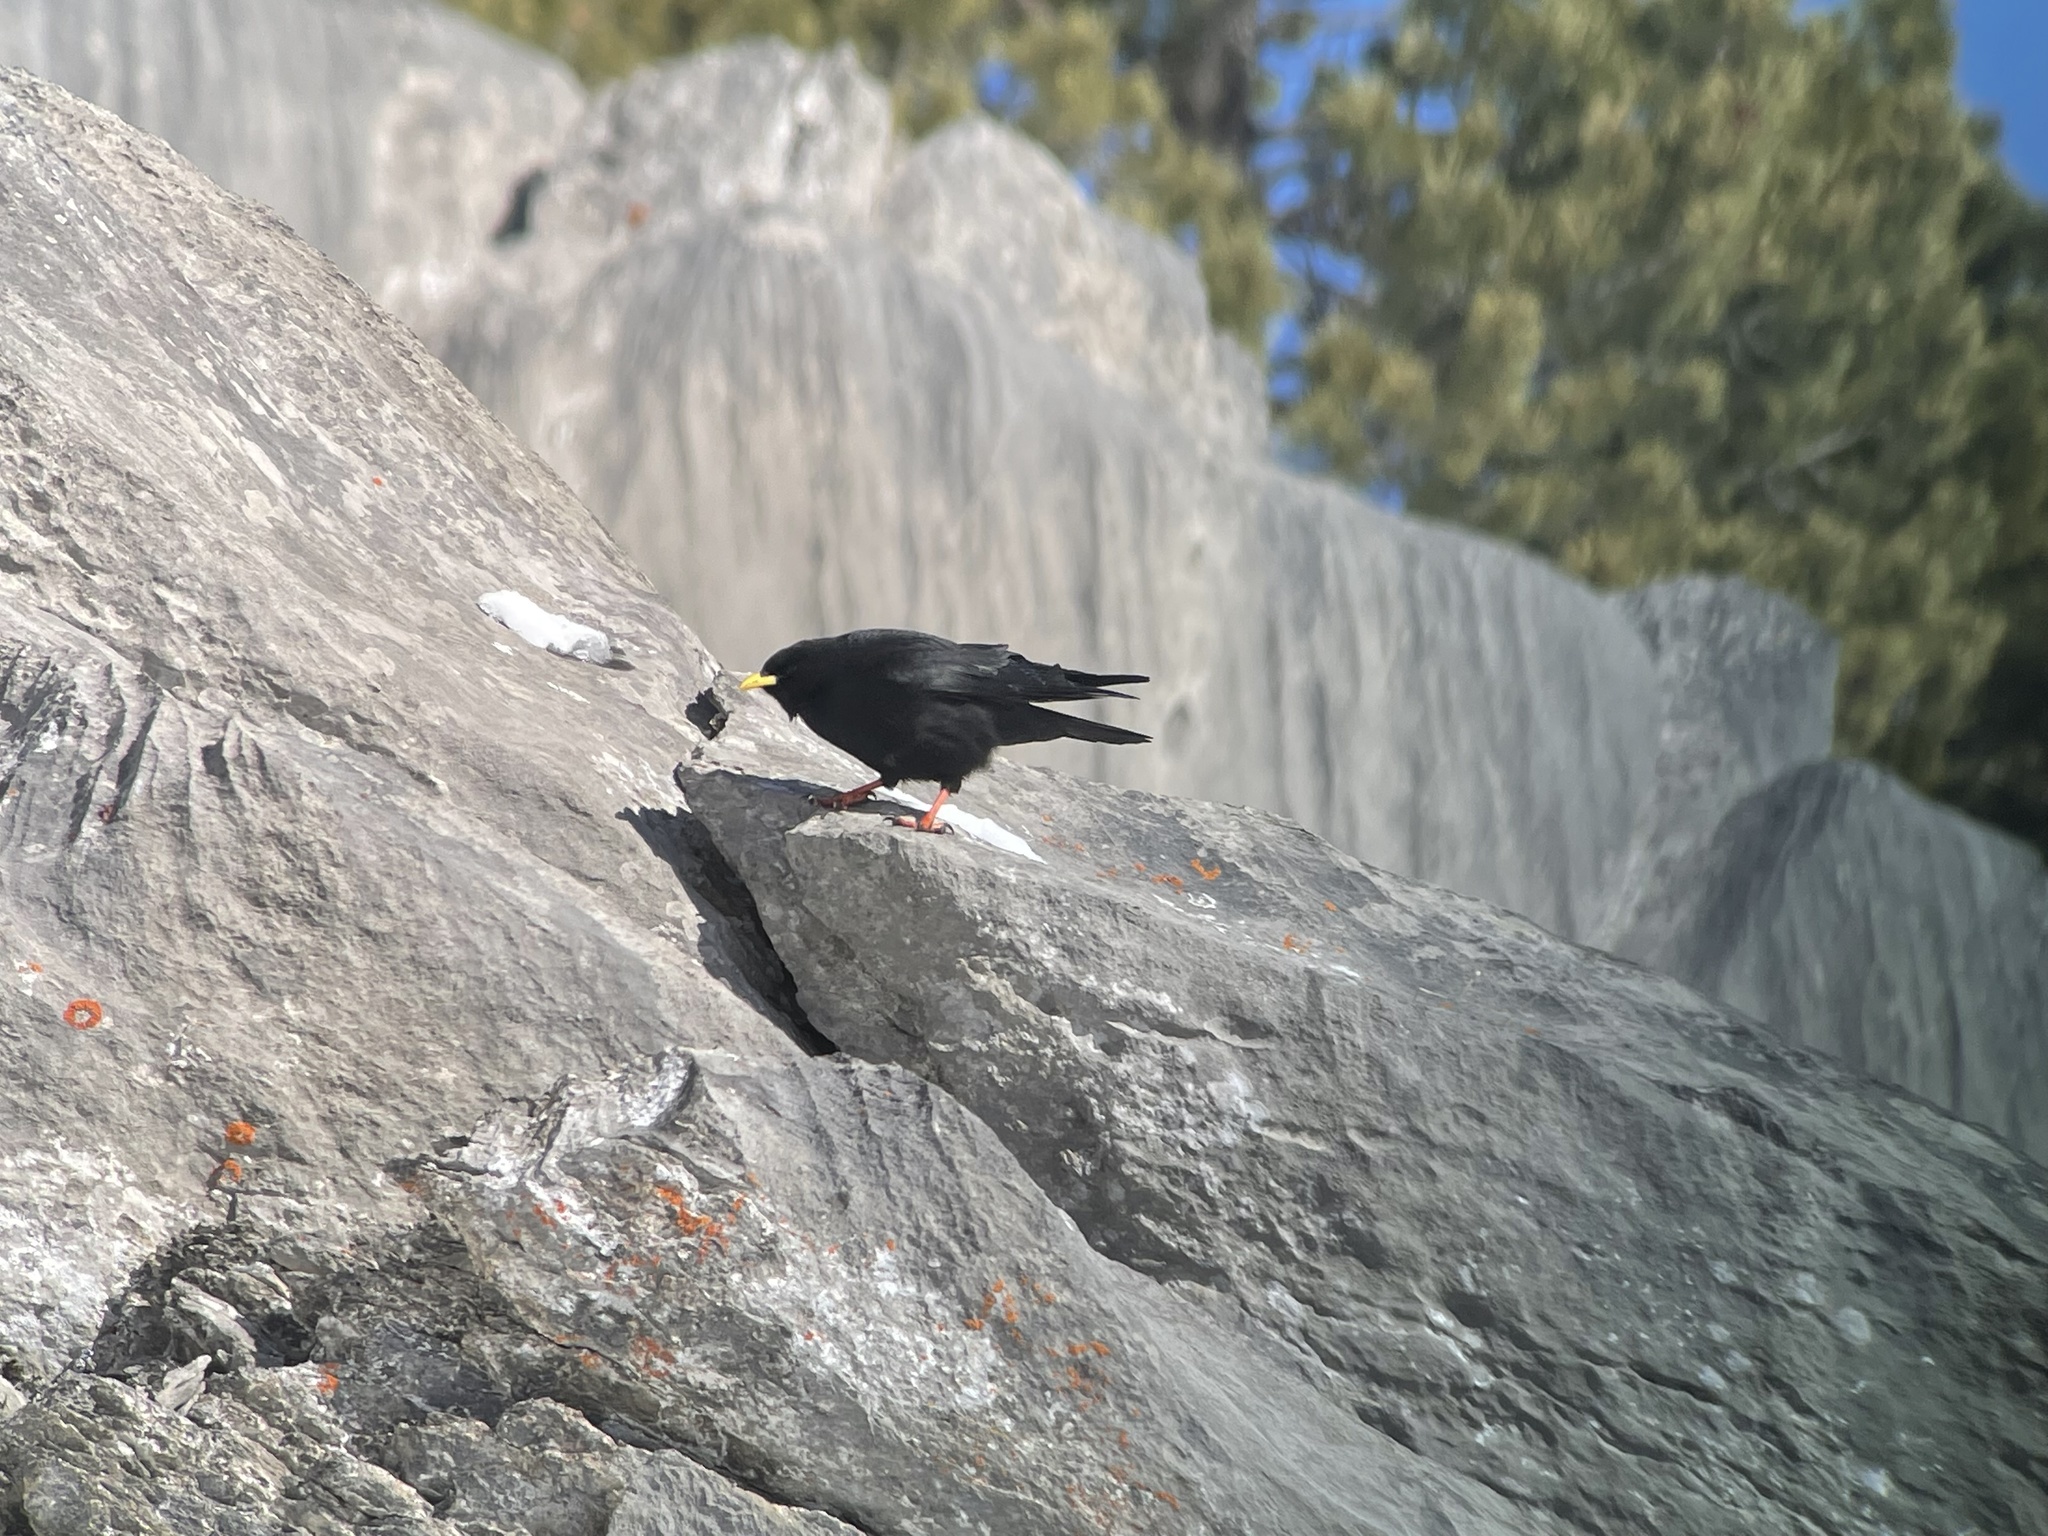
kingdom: Animalia
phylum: Chordata
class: Aves
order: Passeriformes
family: Corvidae
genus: Pyrrhocorax
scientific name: Pyrrhocorax graculus
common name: Alpine chough
